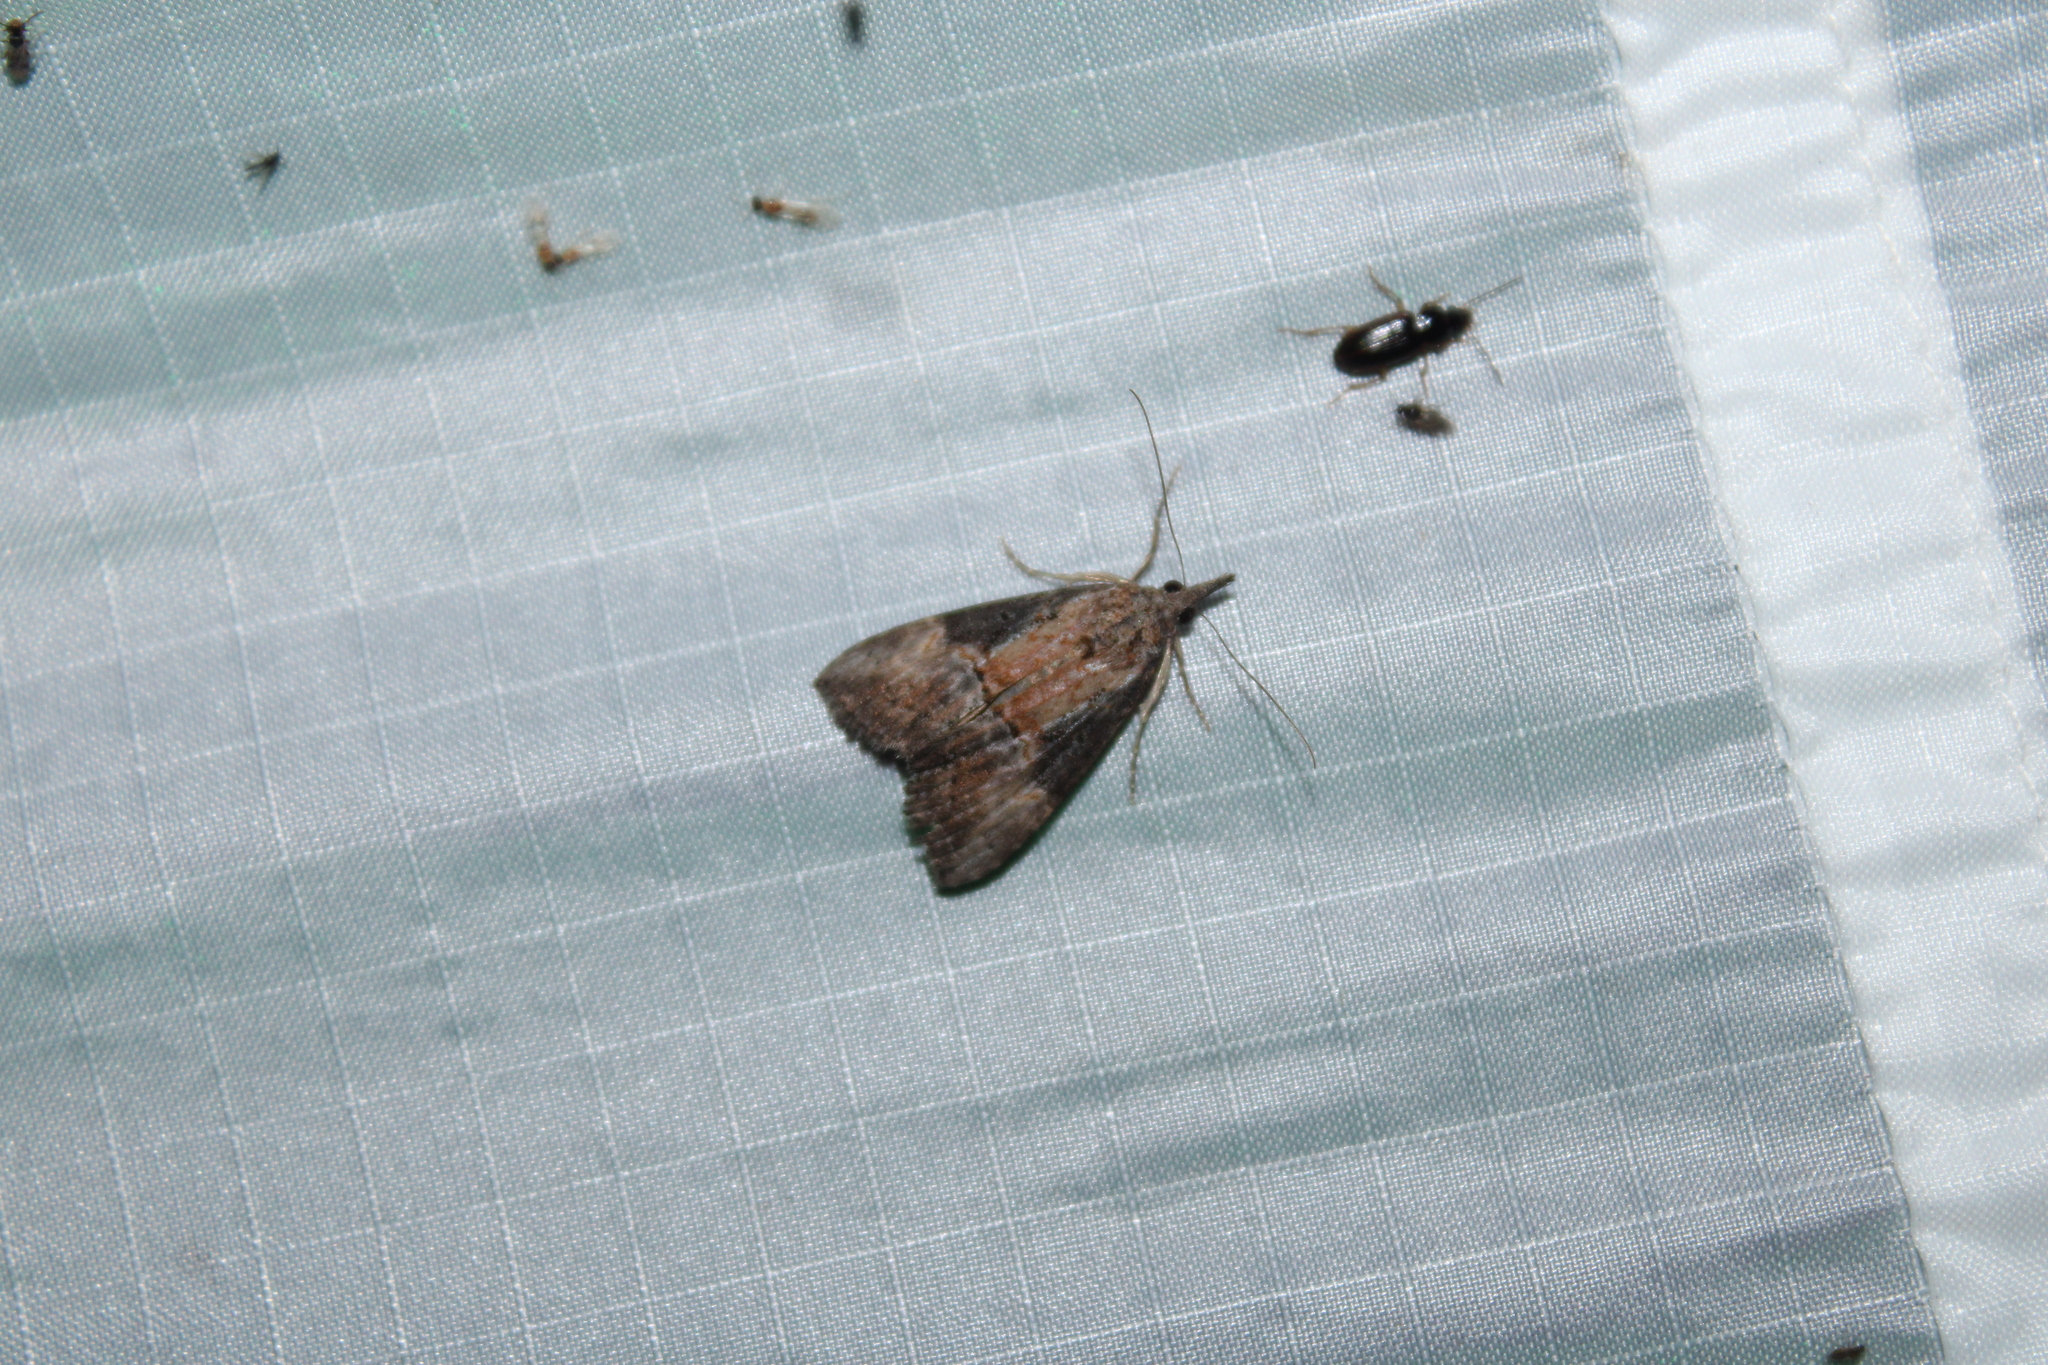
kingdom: Animalia
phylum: Arthropoda
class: Insecta
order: Lepidoptera
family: Erebidae
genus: Hypena
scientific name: Hypena scabra
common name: Green cloverworm
